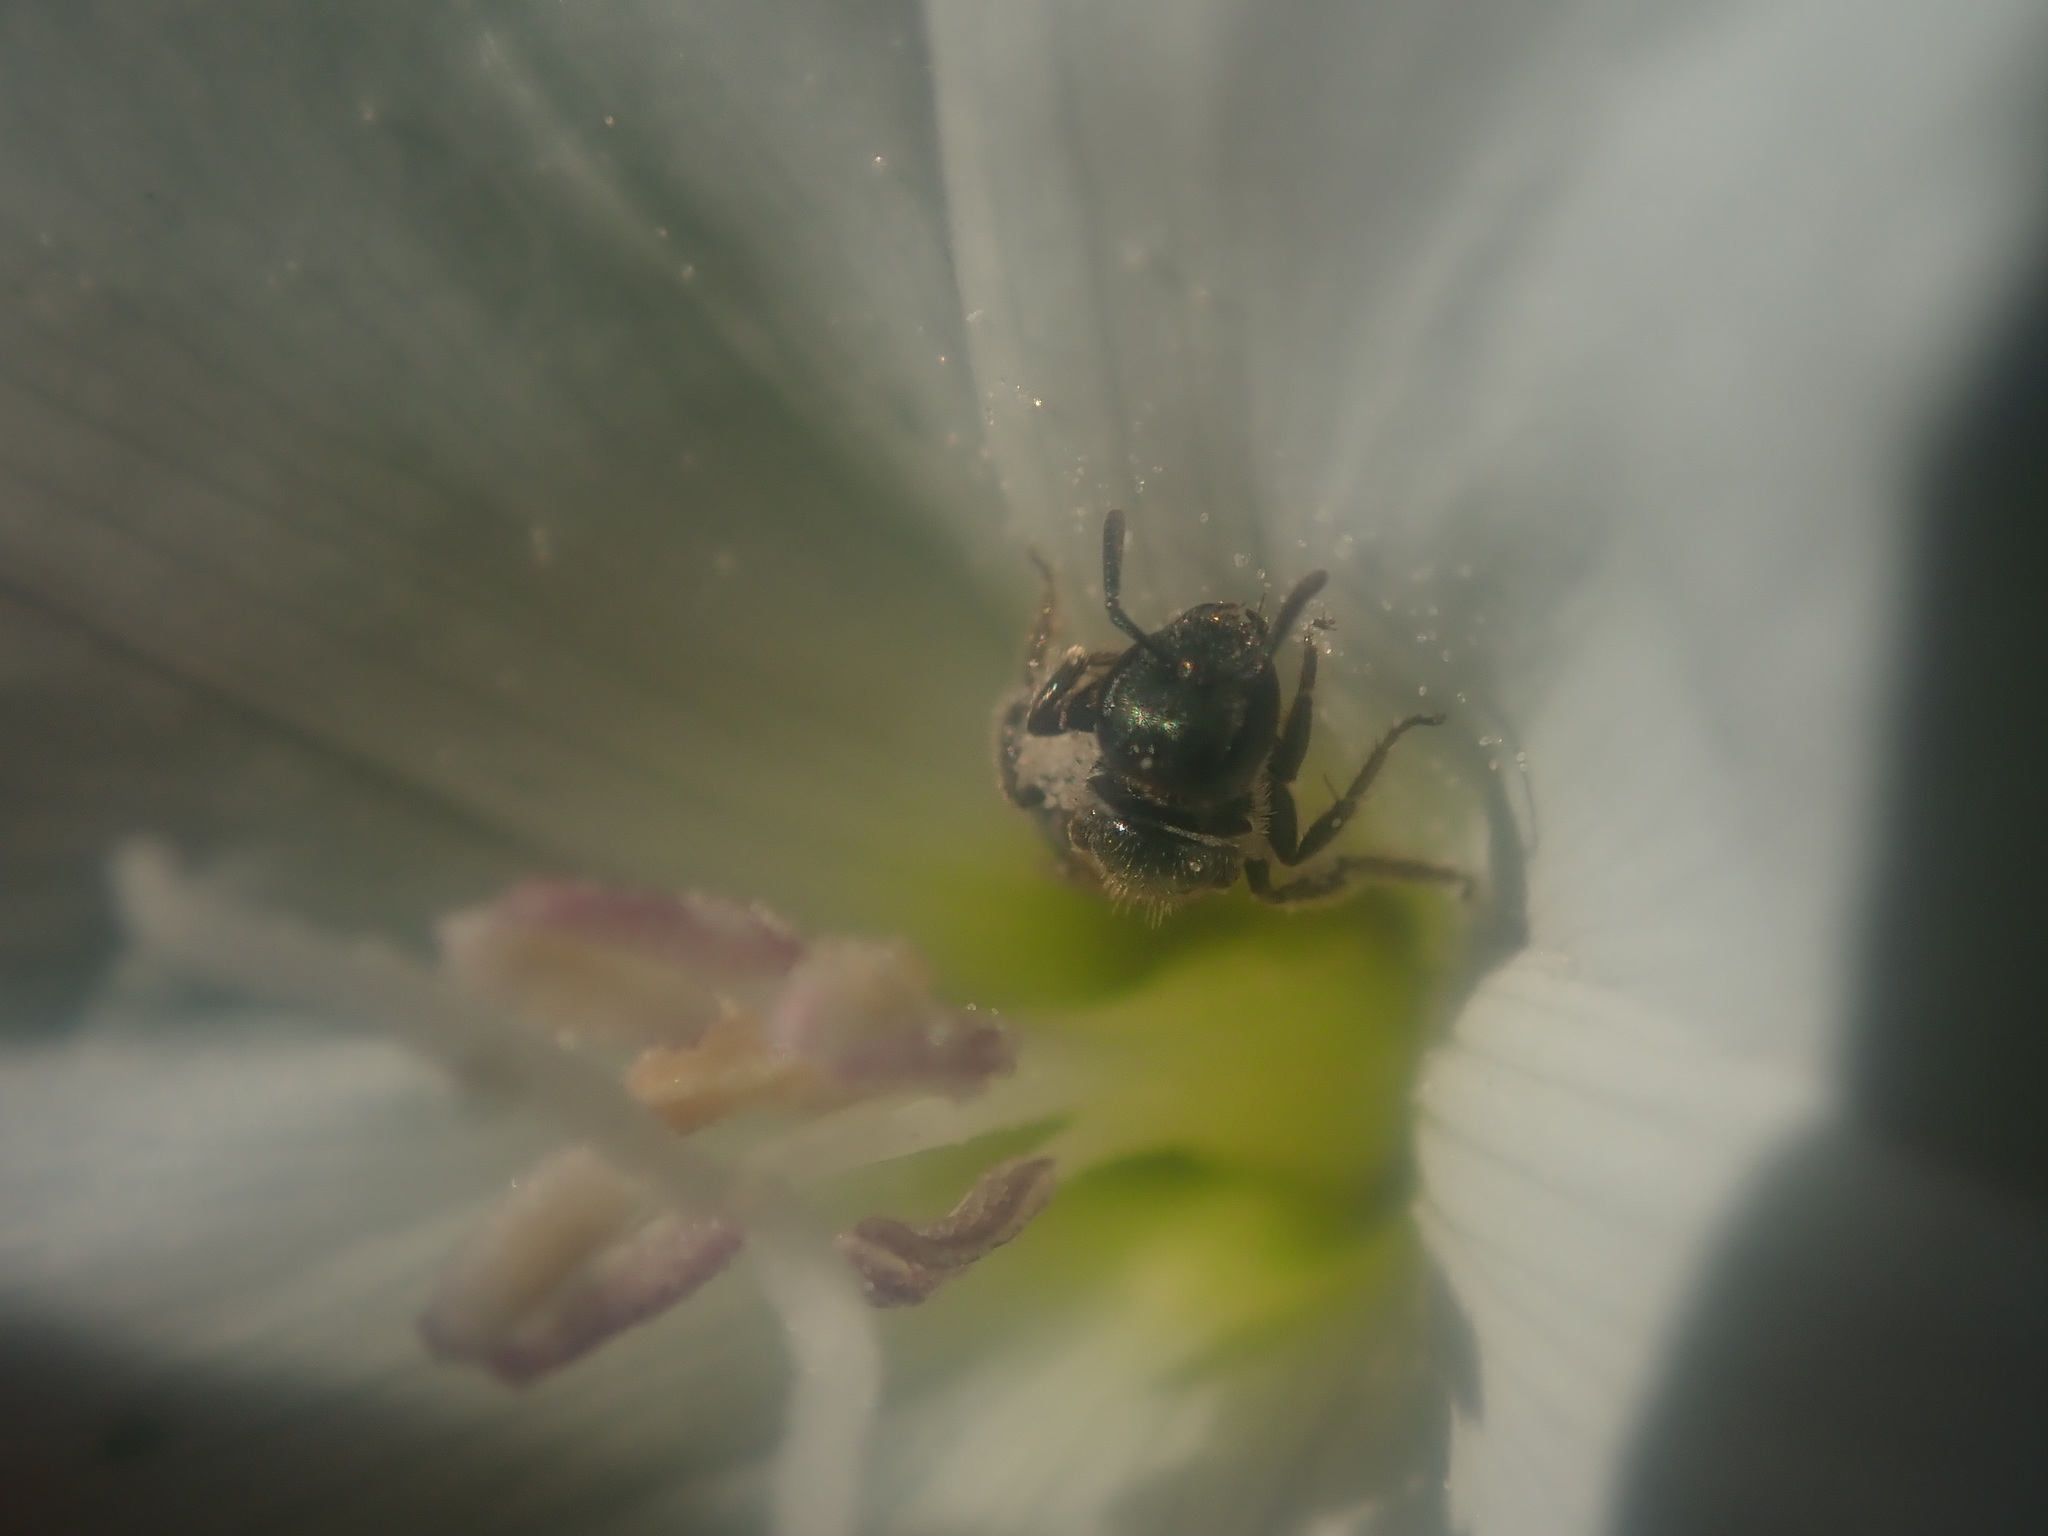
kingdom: Animalia
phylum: Arthropoda
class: Insecta
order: Hymenoptera
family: Halictidae
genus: Dialictus
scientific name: Dialictus
